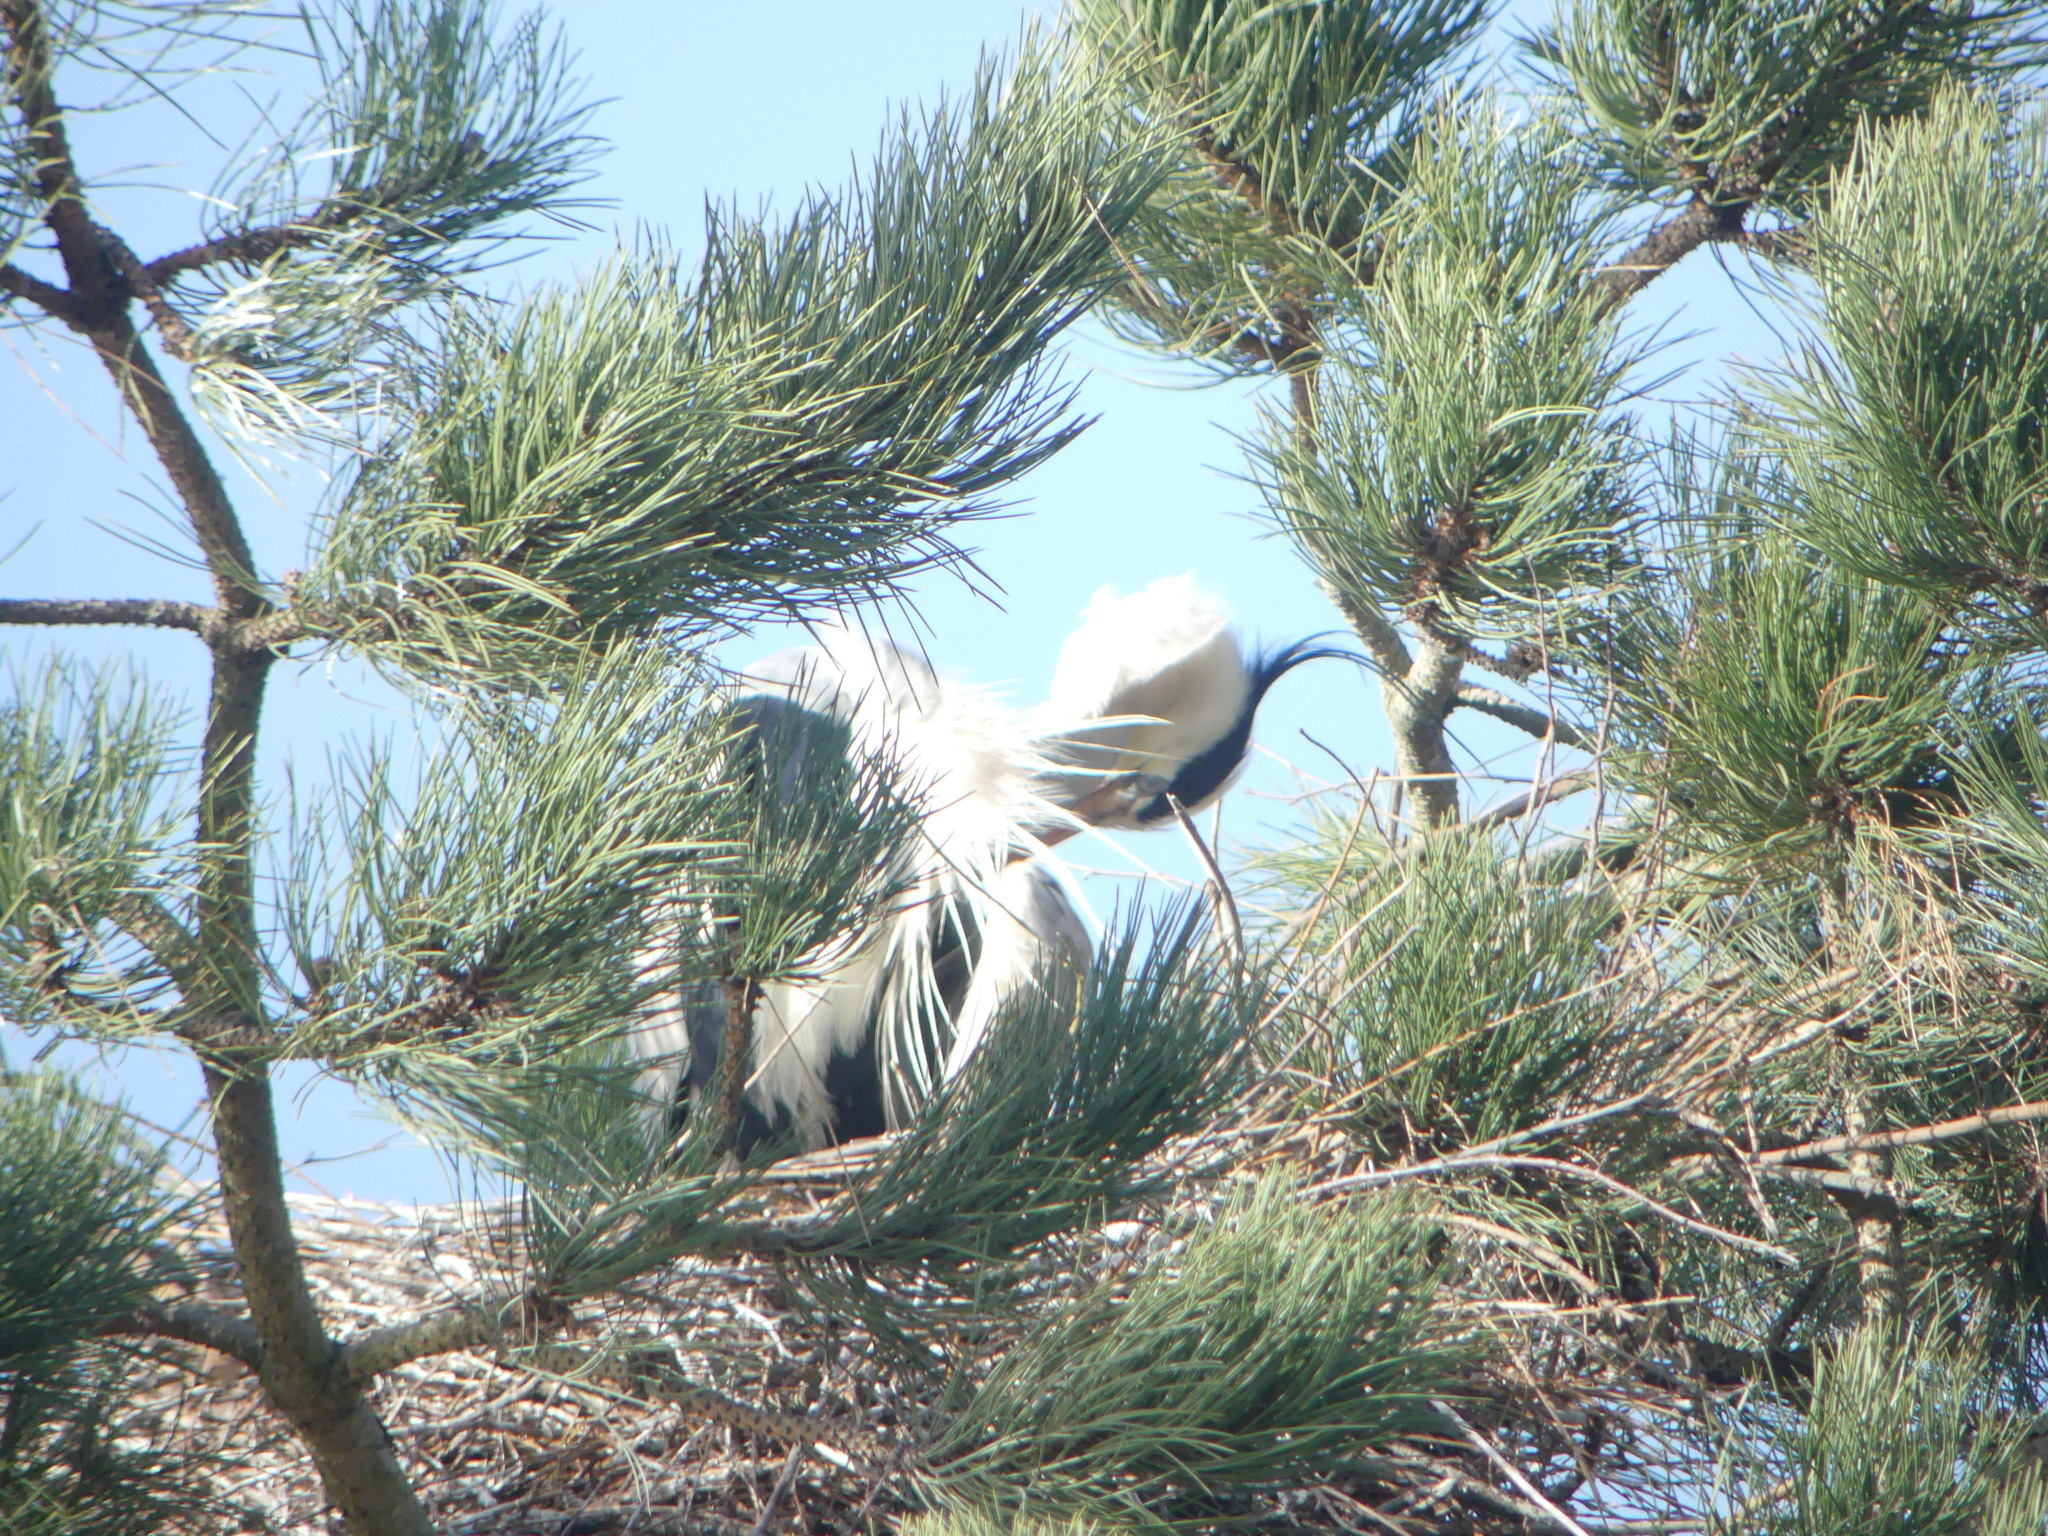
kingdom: Animalia
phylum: Chordata
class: Aves
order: Pelecaniformes
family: Ardeidae
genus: Ardea
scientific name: Ardea cinerea
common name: Grey heron
